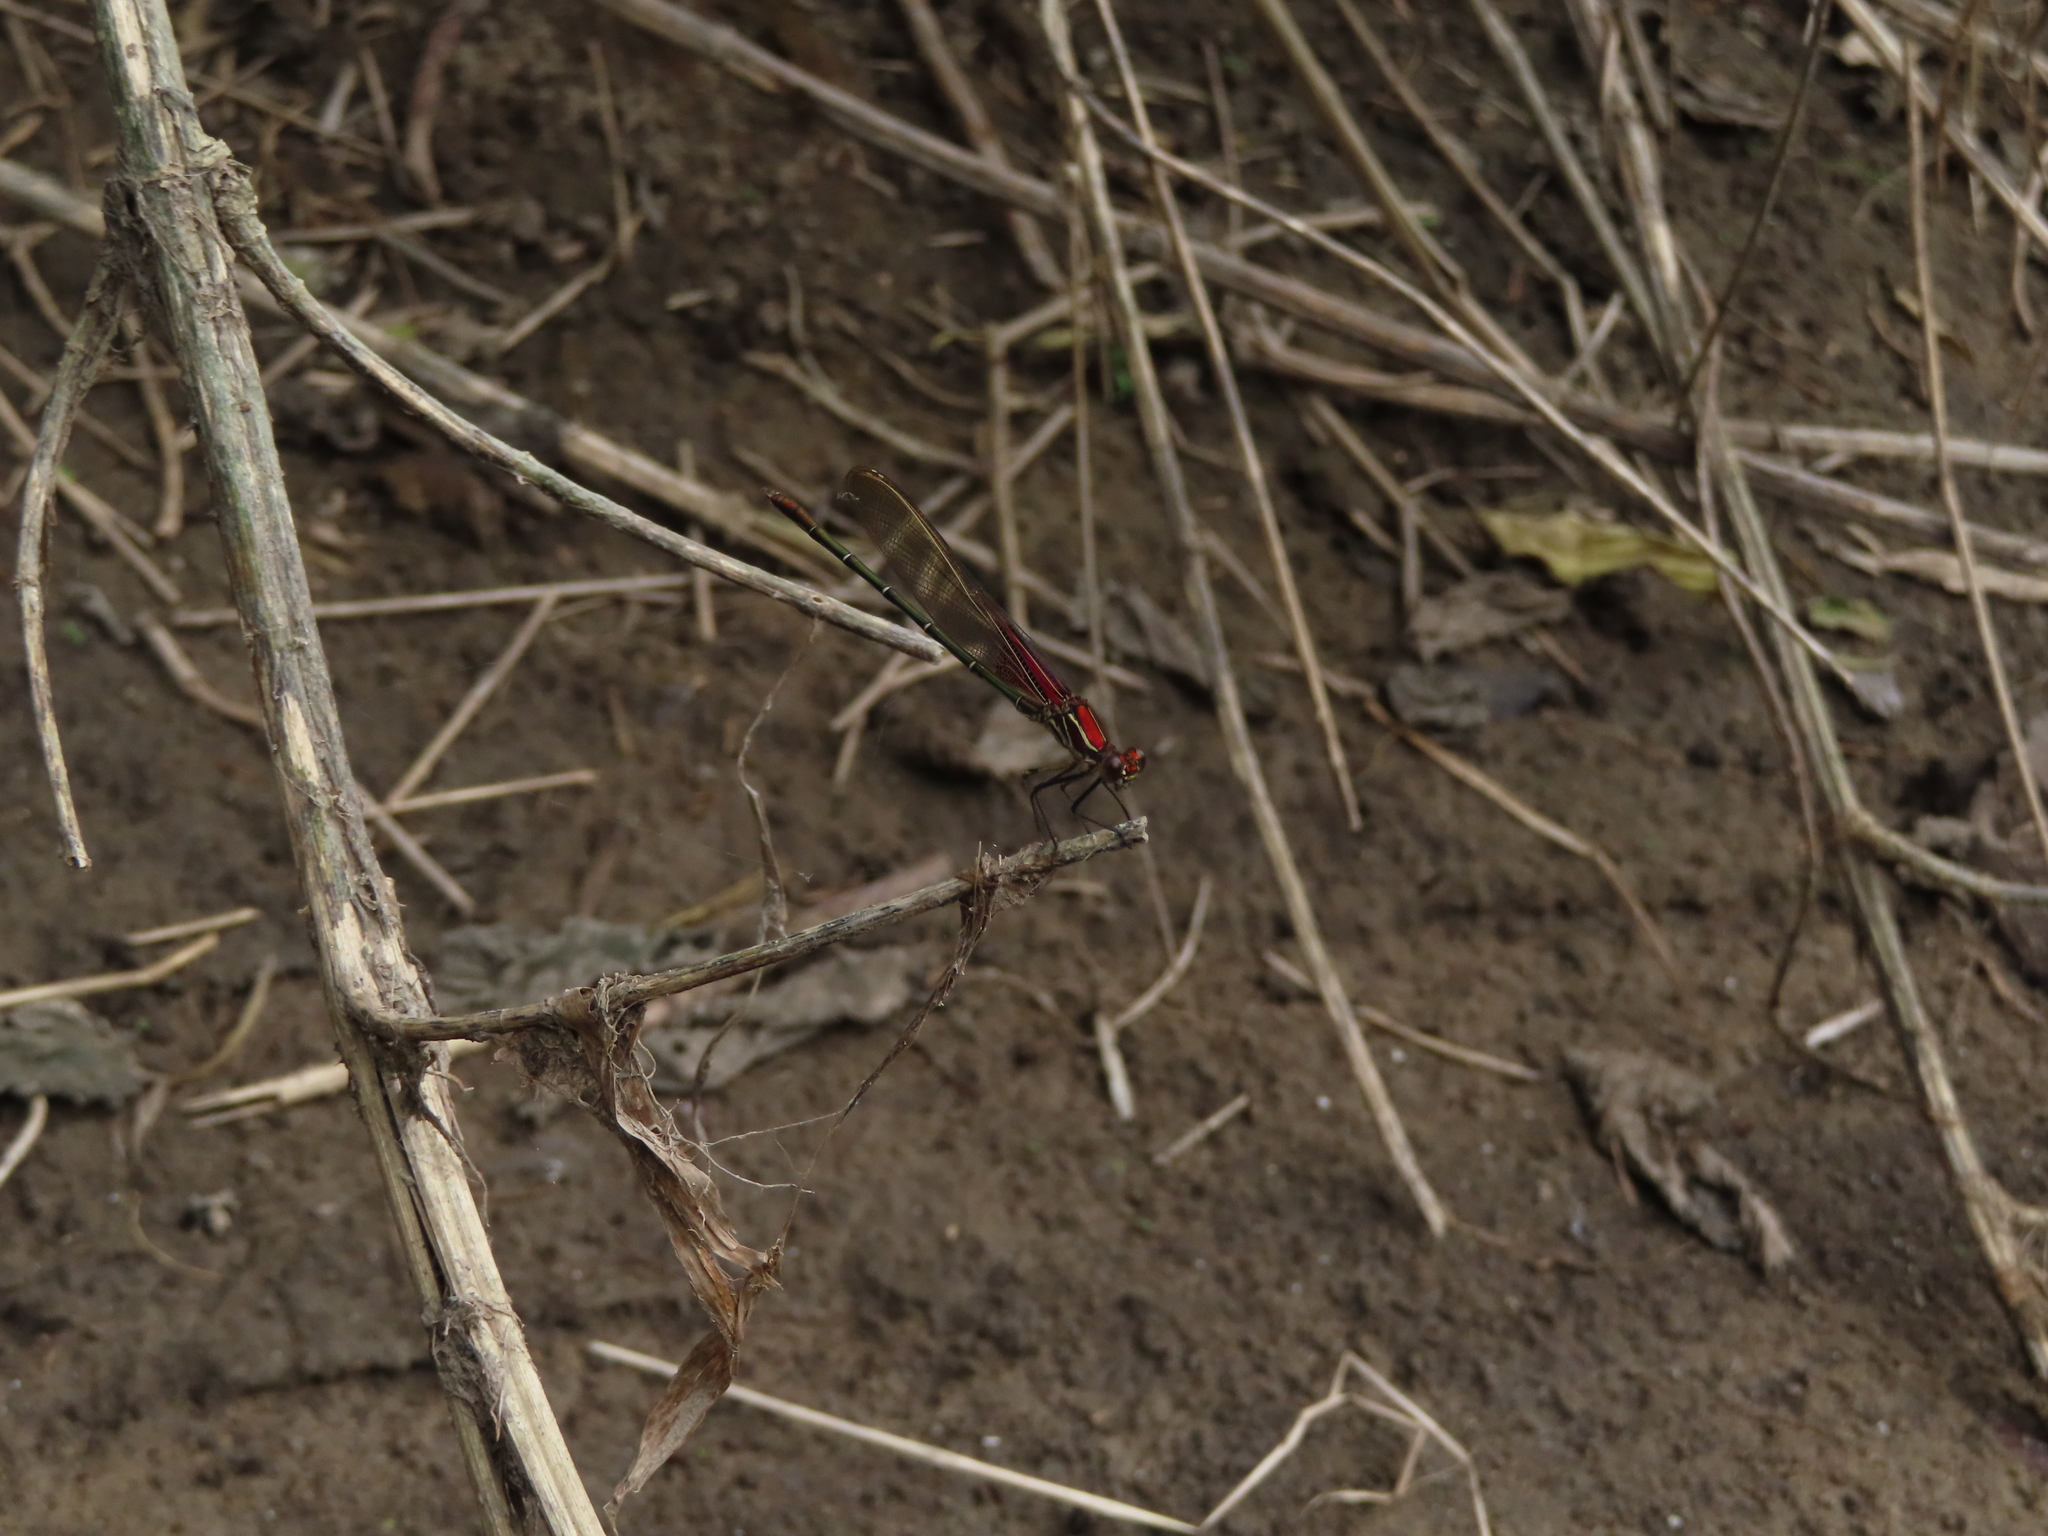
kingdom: Animalia
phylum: Arthropoda
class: Insecta
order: Odonata
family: Calopterygidae
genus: Hetaerina
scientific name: Hetaerina americana
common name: American rubyspot
